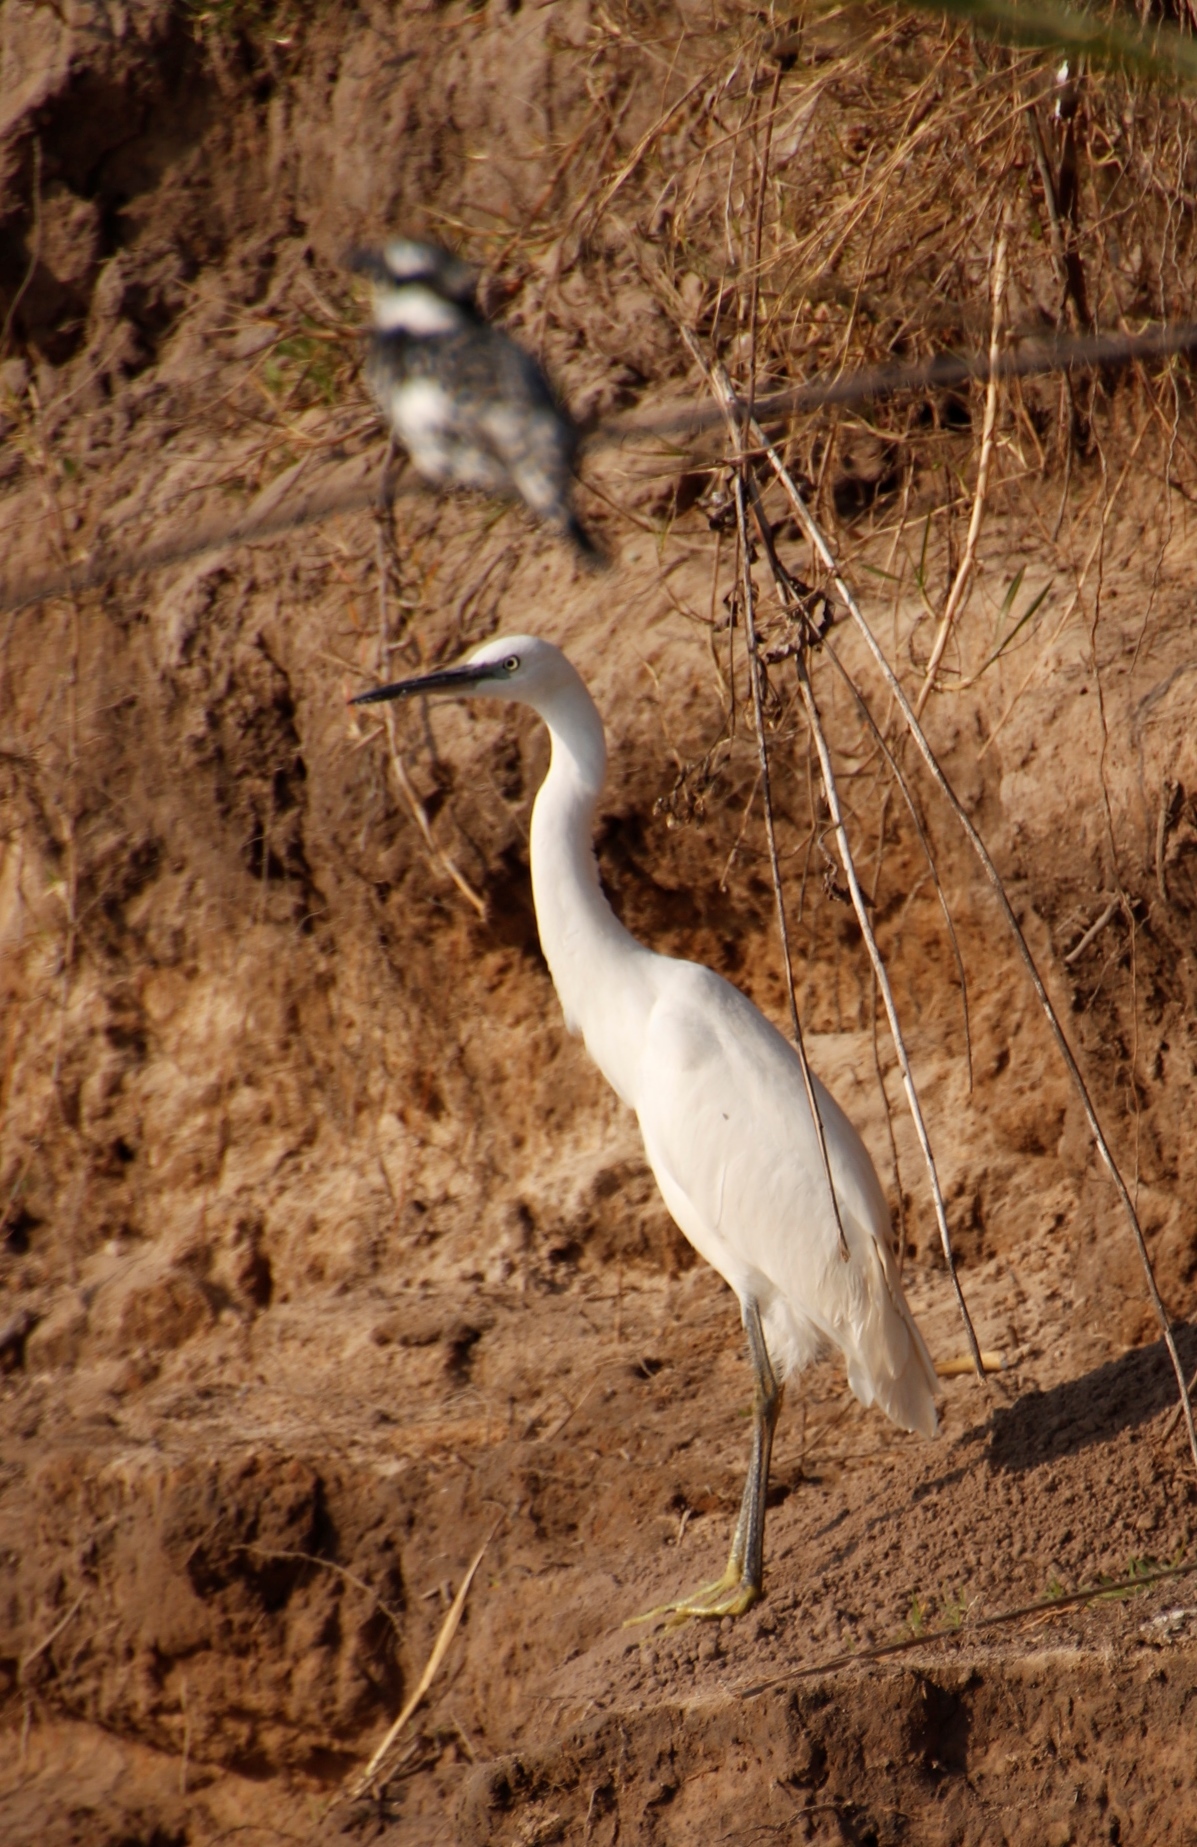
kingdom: Animalia
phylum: Chordata
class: Aves
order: Pelecaniformes
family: Ardeidae
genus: Egretta
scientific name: Egretta garzetta
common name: Little egret
